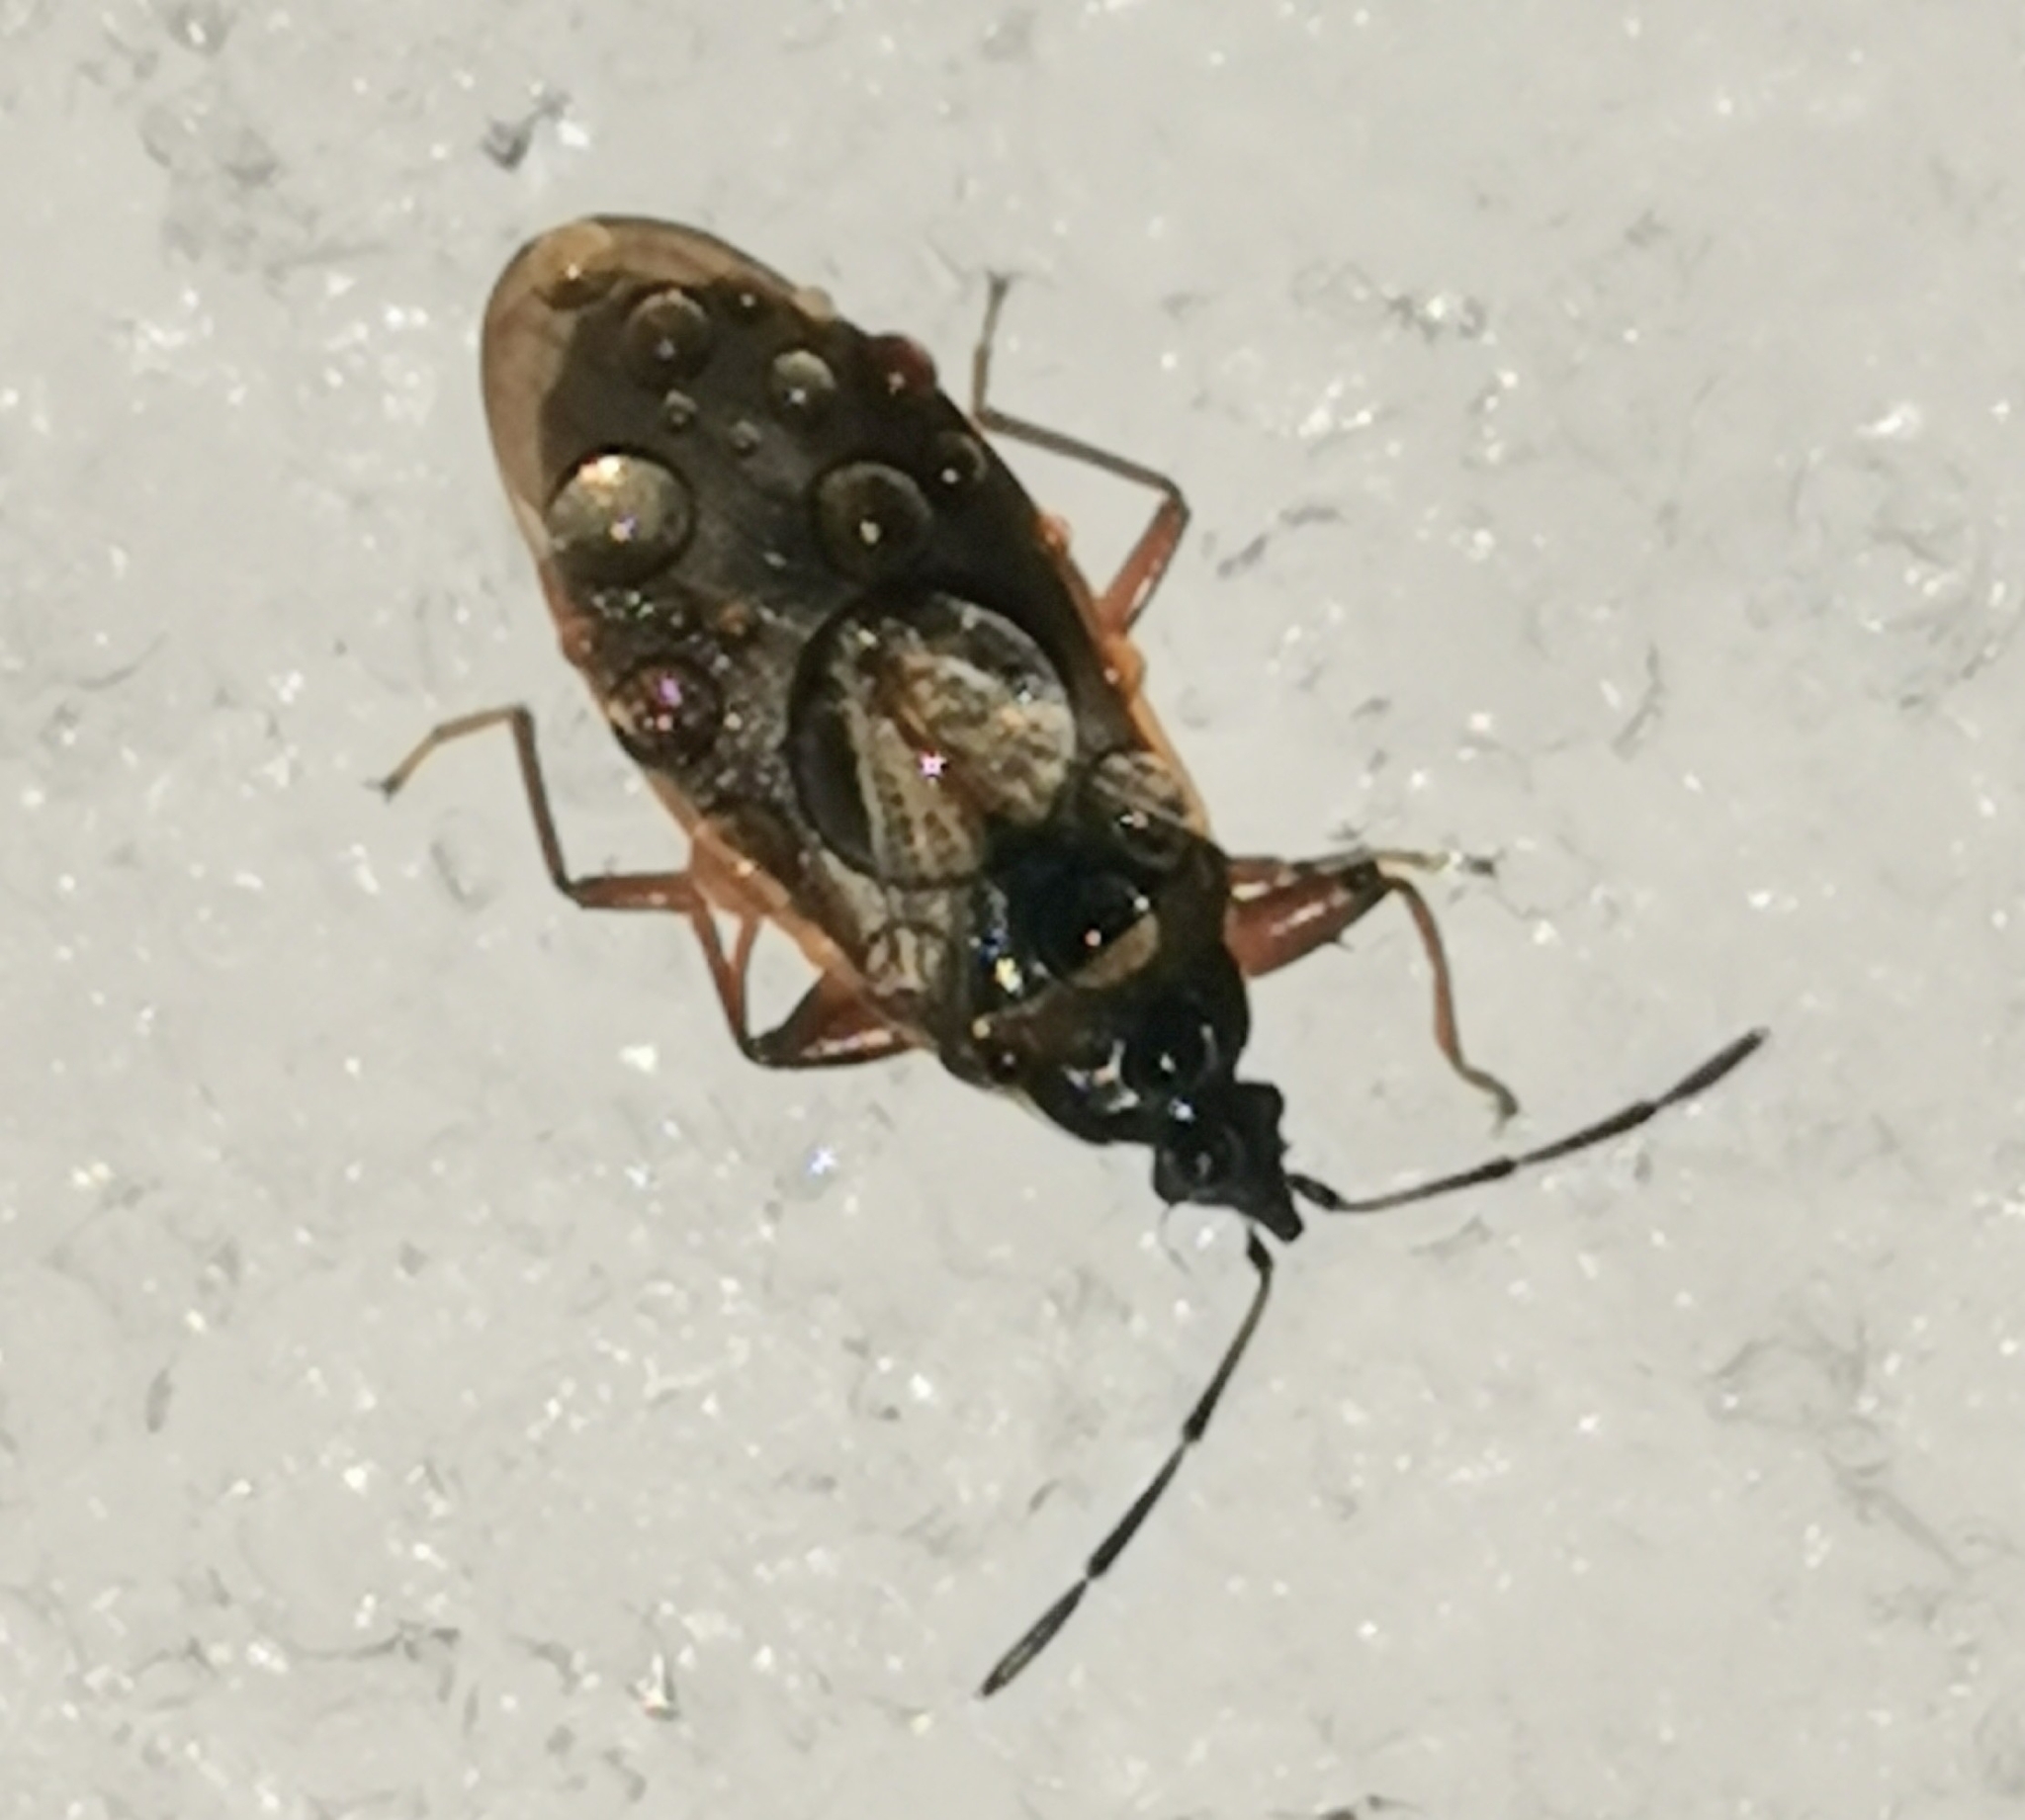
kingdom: Animalia
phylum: Arthropoda
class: Insecta
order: Hemiptera
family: Rhyparochromidae
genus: Gastrodes
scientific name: Gastrodes abietum
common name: Spruce cone bug
